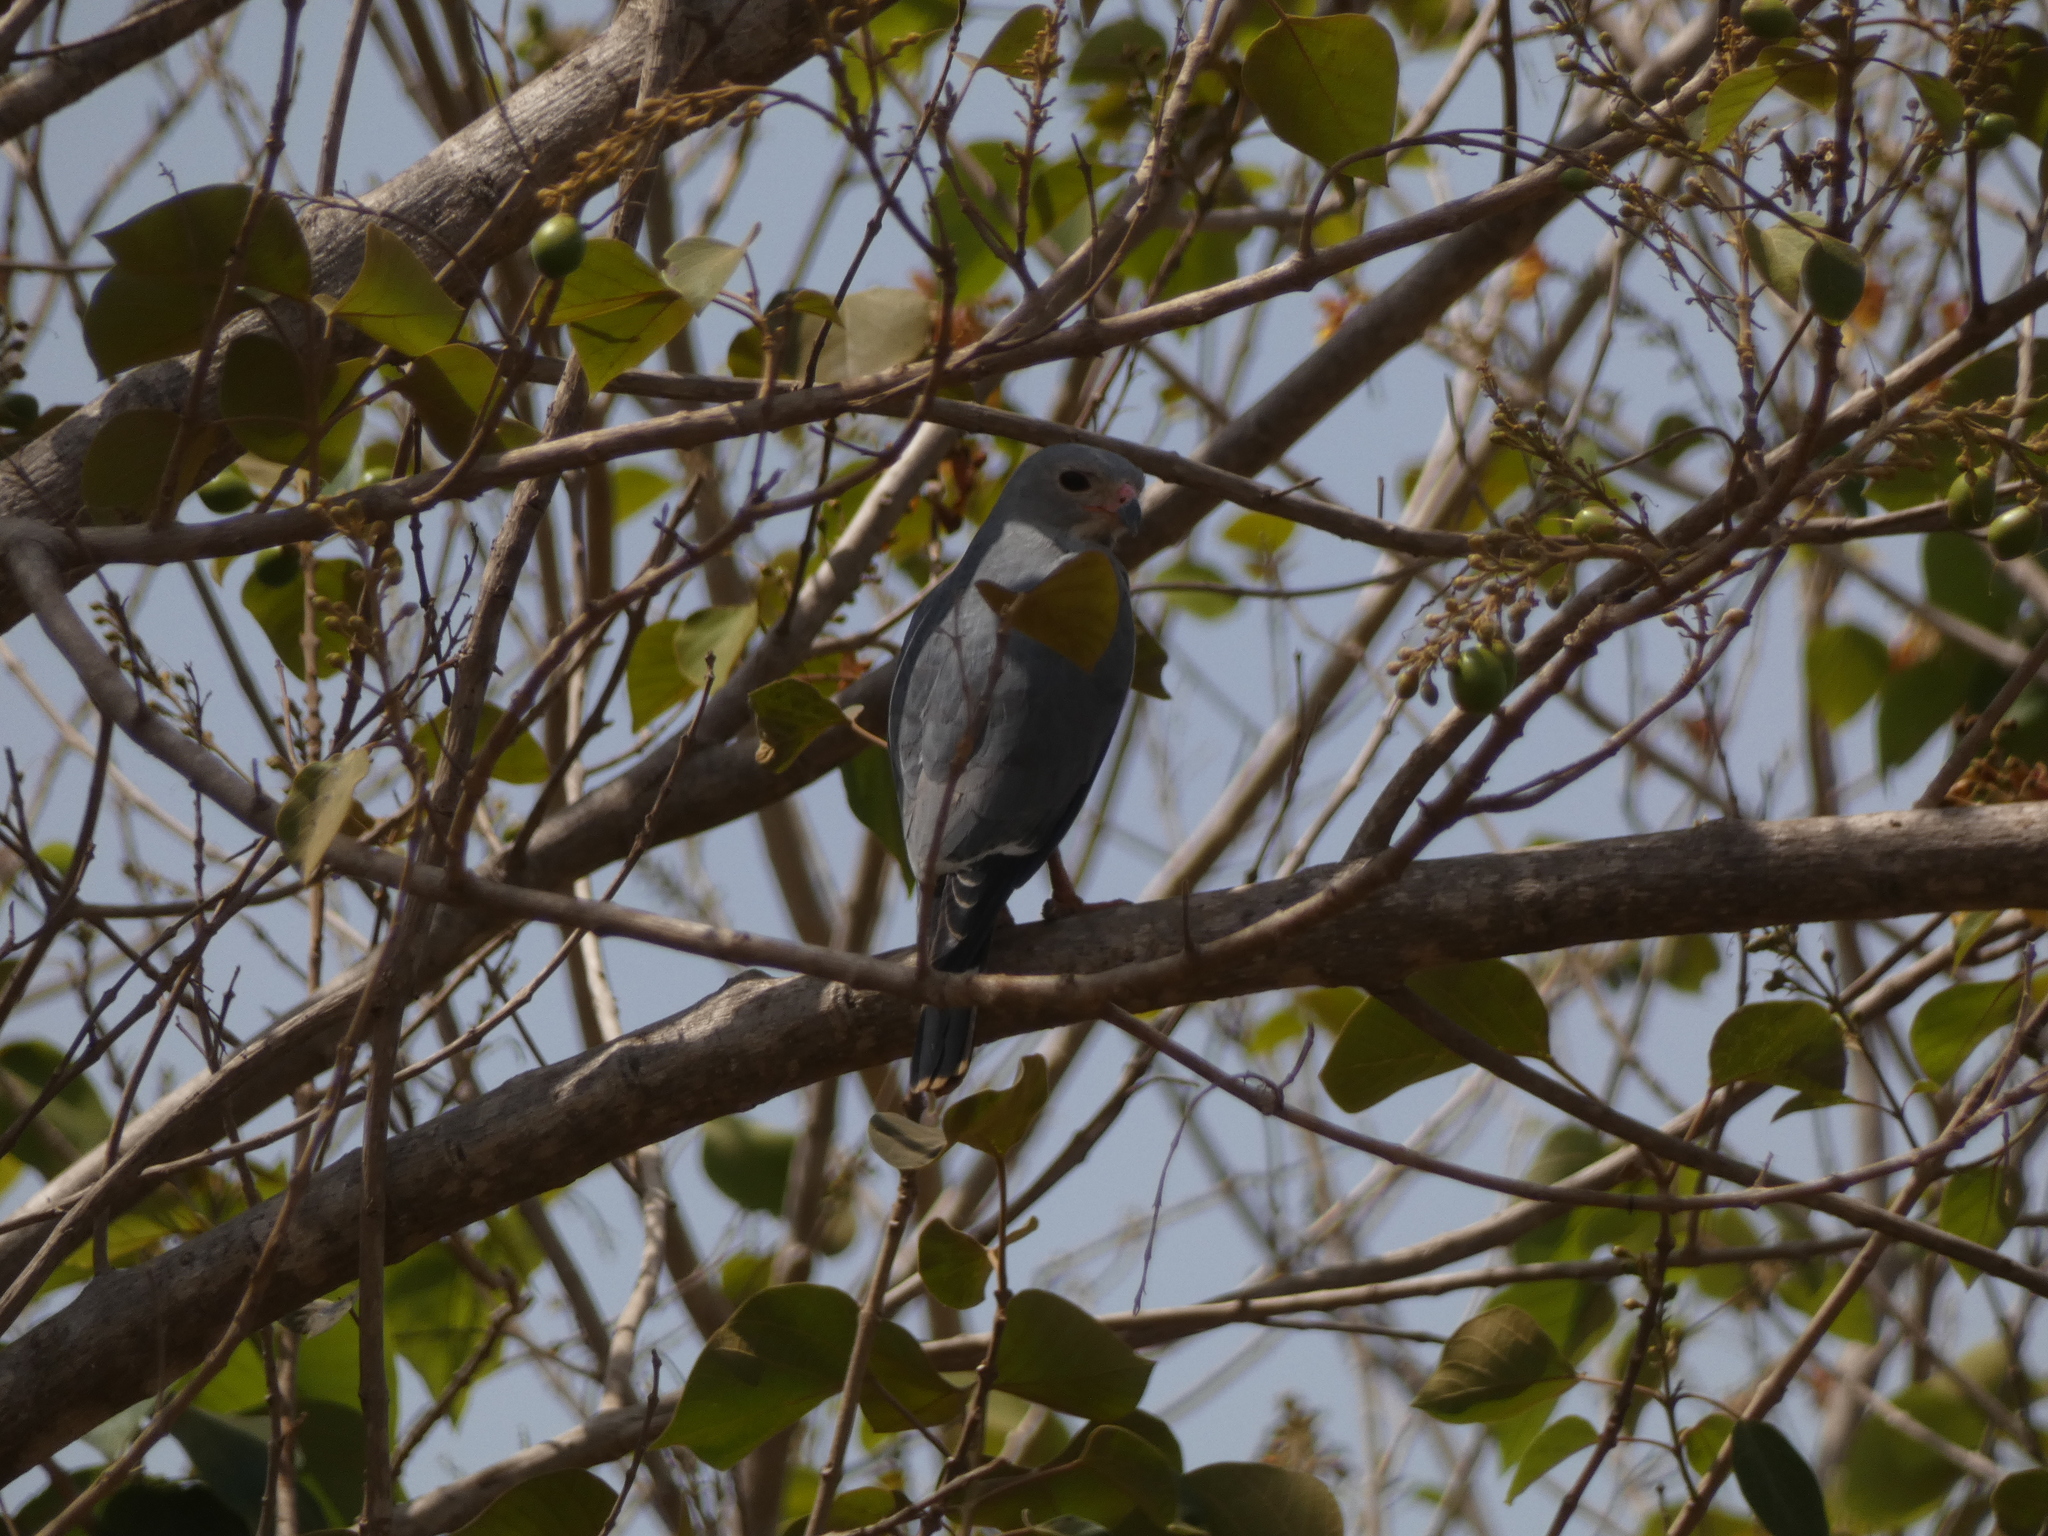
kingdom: Animalia
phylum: Chordata
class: Aves
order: Accipitriformes
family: Accipitridae
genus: Kaupifalco
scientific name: Kaupifalco monogrammicus
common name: Lizard buzzard
